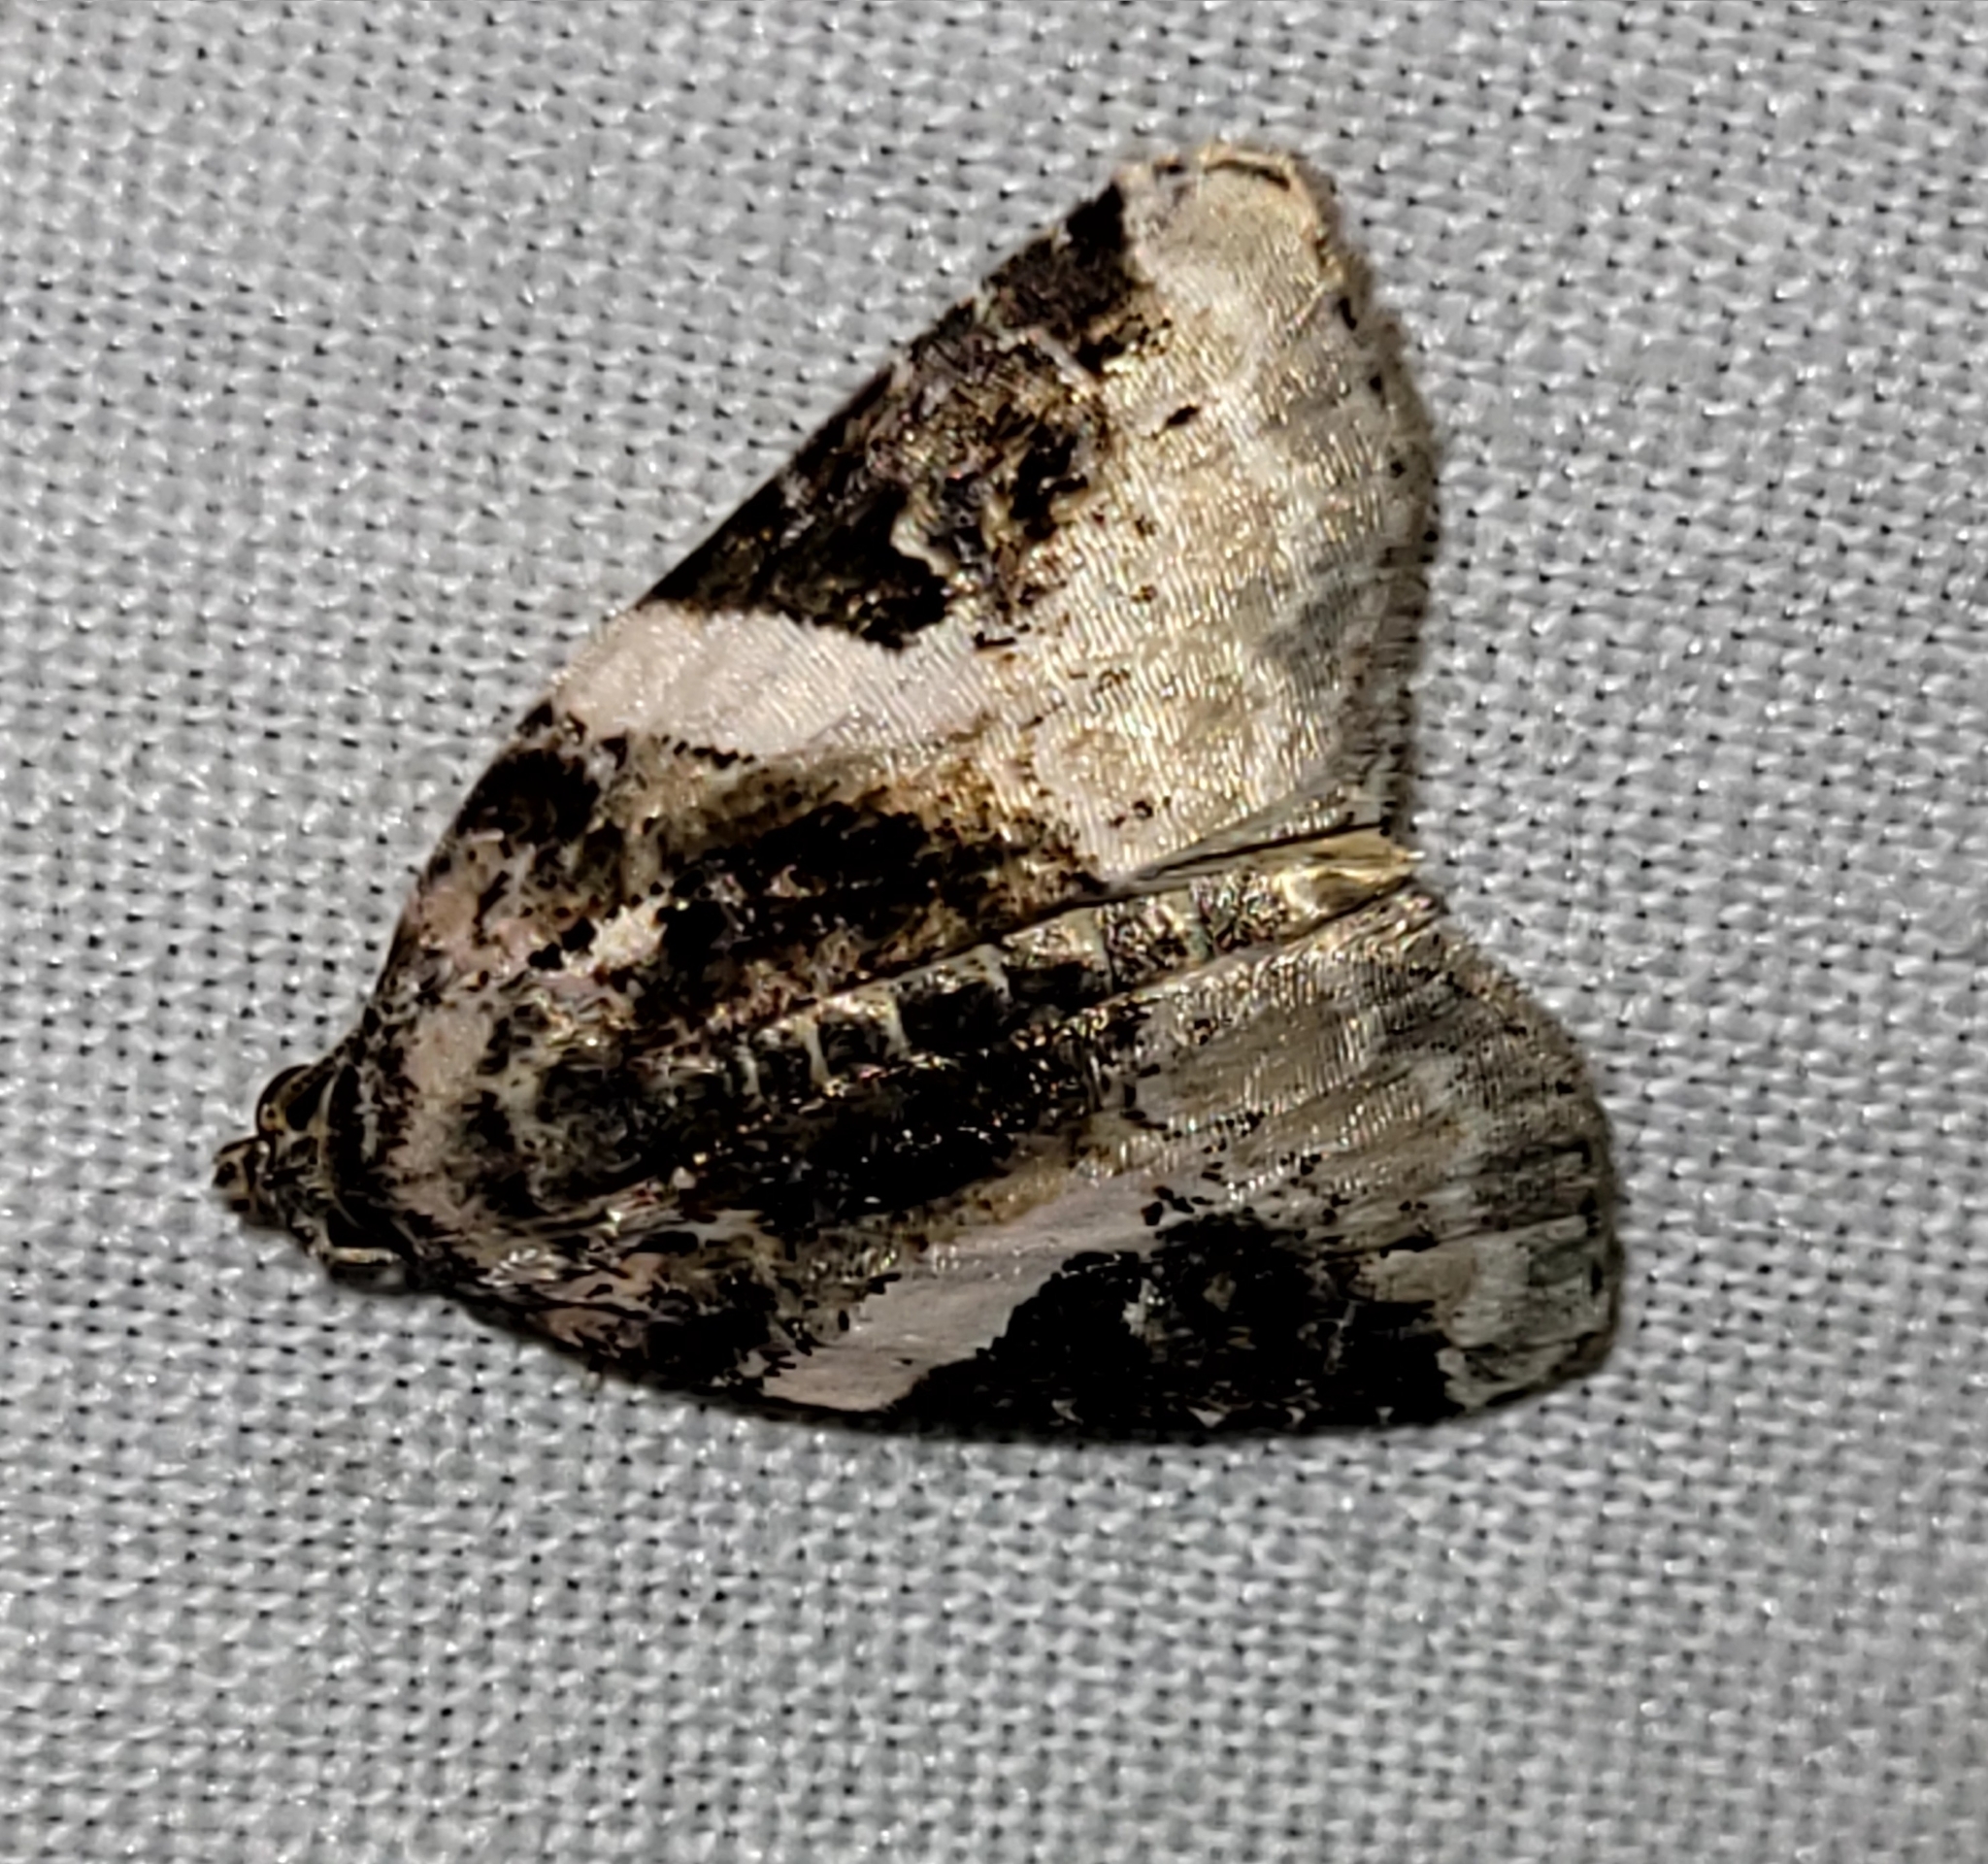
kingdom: Animalia
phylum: Arthropoda
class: Insecta
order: Lepidoptera
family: Noctuidae
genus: Pseudeustrotia
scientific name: Pseudeustrotia carneola
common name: Pink-barred lithacodia moth
